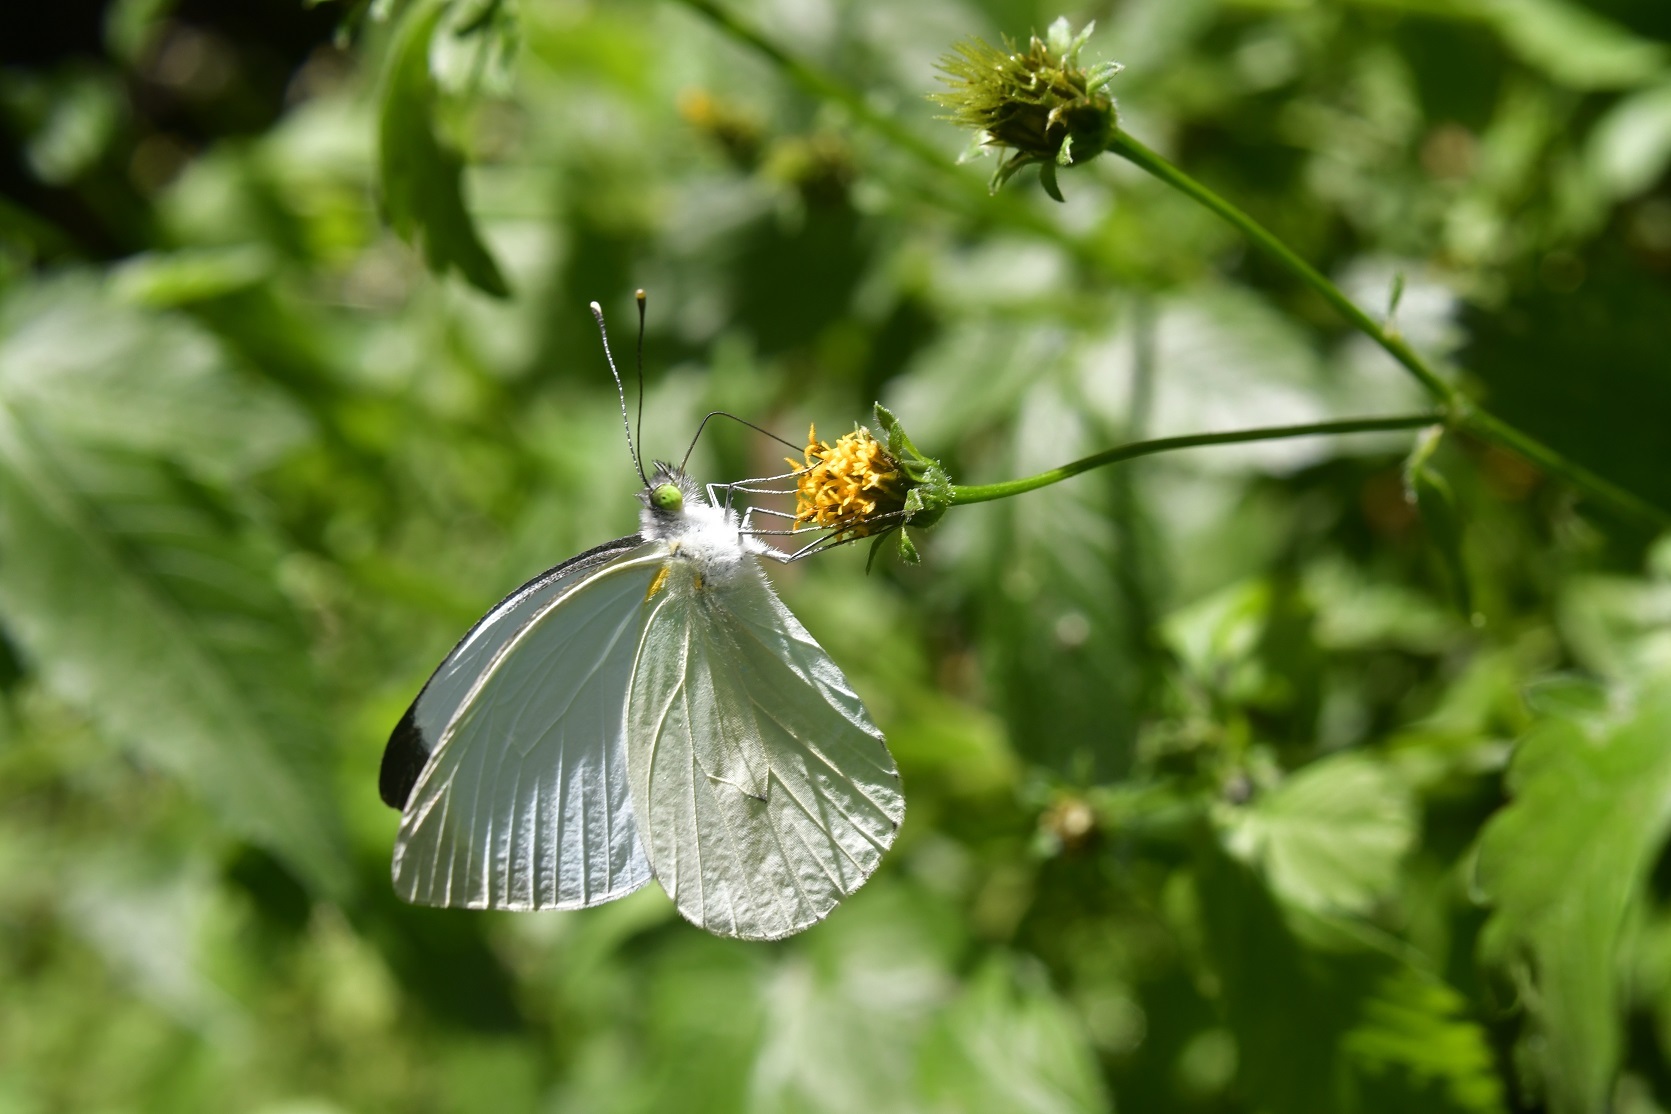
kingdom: Animalia
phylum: Arthropoda
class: Insecta
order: Lepidoptera
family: Pieridae
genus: Leptophobia
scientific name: Leptophobia aripa
